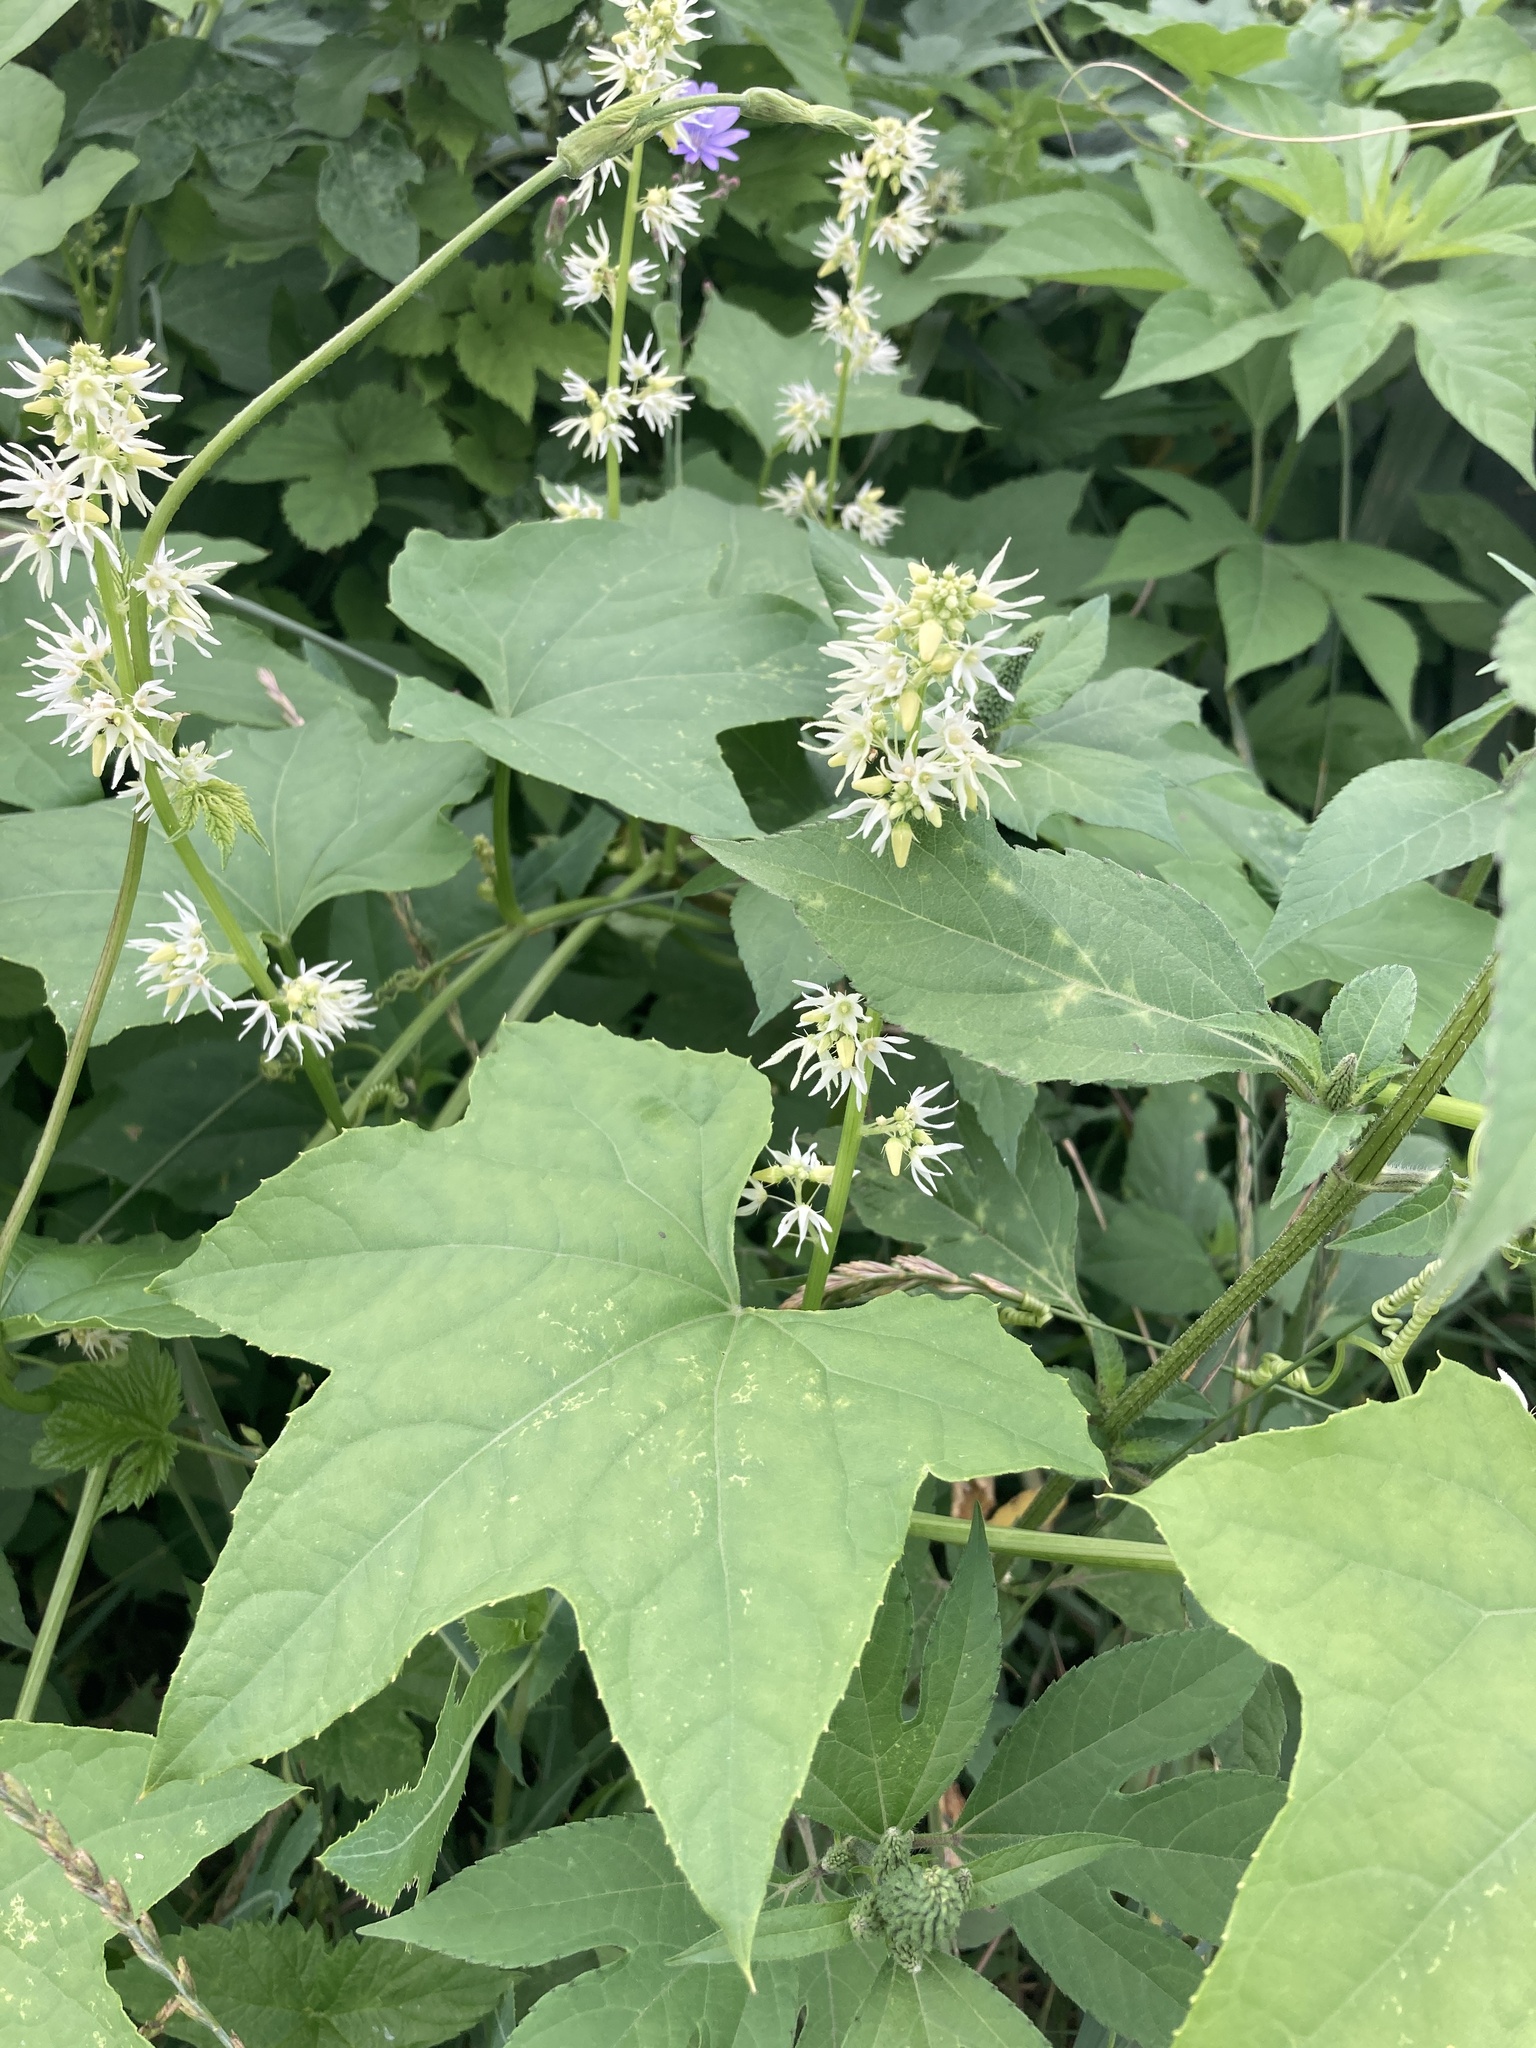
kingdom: Plantae
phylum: Tracheophyta
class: Magnoliopsida
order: Cucurbitales
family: Cucurbitaceae
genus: Echinocystis
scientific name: Echinocystis lobata
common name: Wild cucumber
